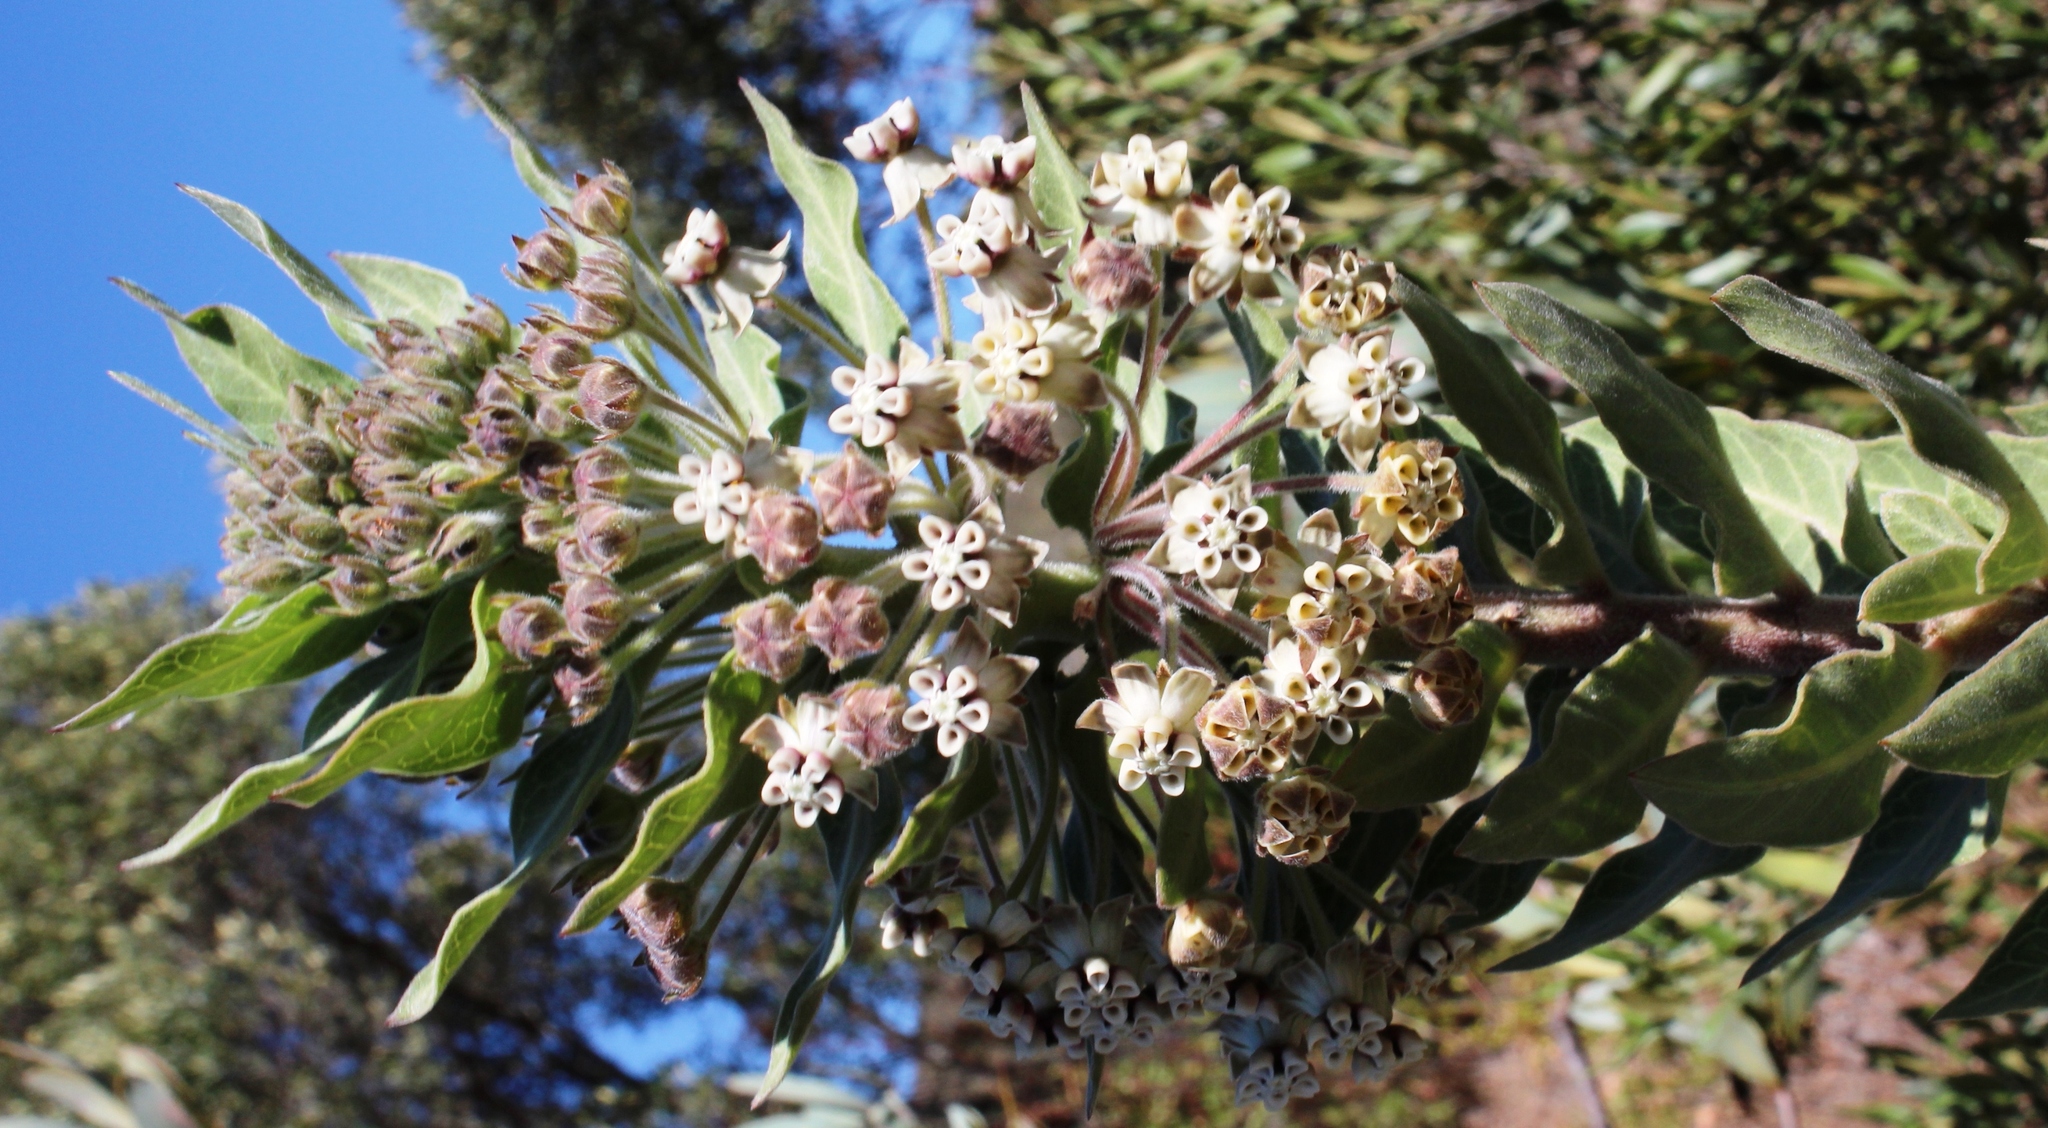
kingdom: Plantae
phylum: Tracheophyta
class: Magnoliopsida
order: Gentianales
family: Apocynaceae
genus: Gomphocarpus
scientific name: Gomphocarpus cancellatus
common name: Wild cotton
